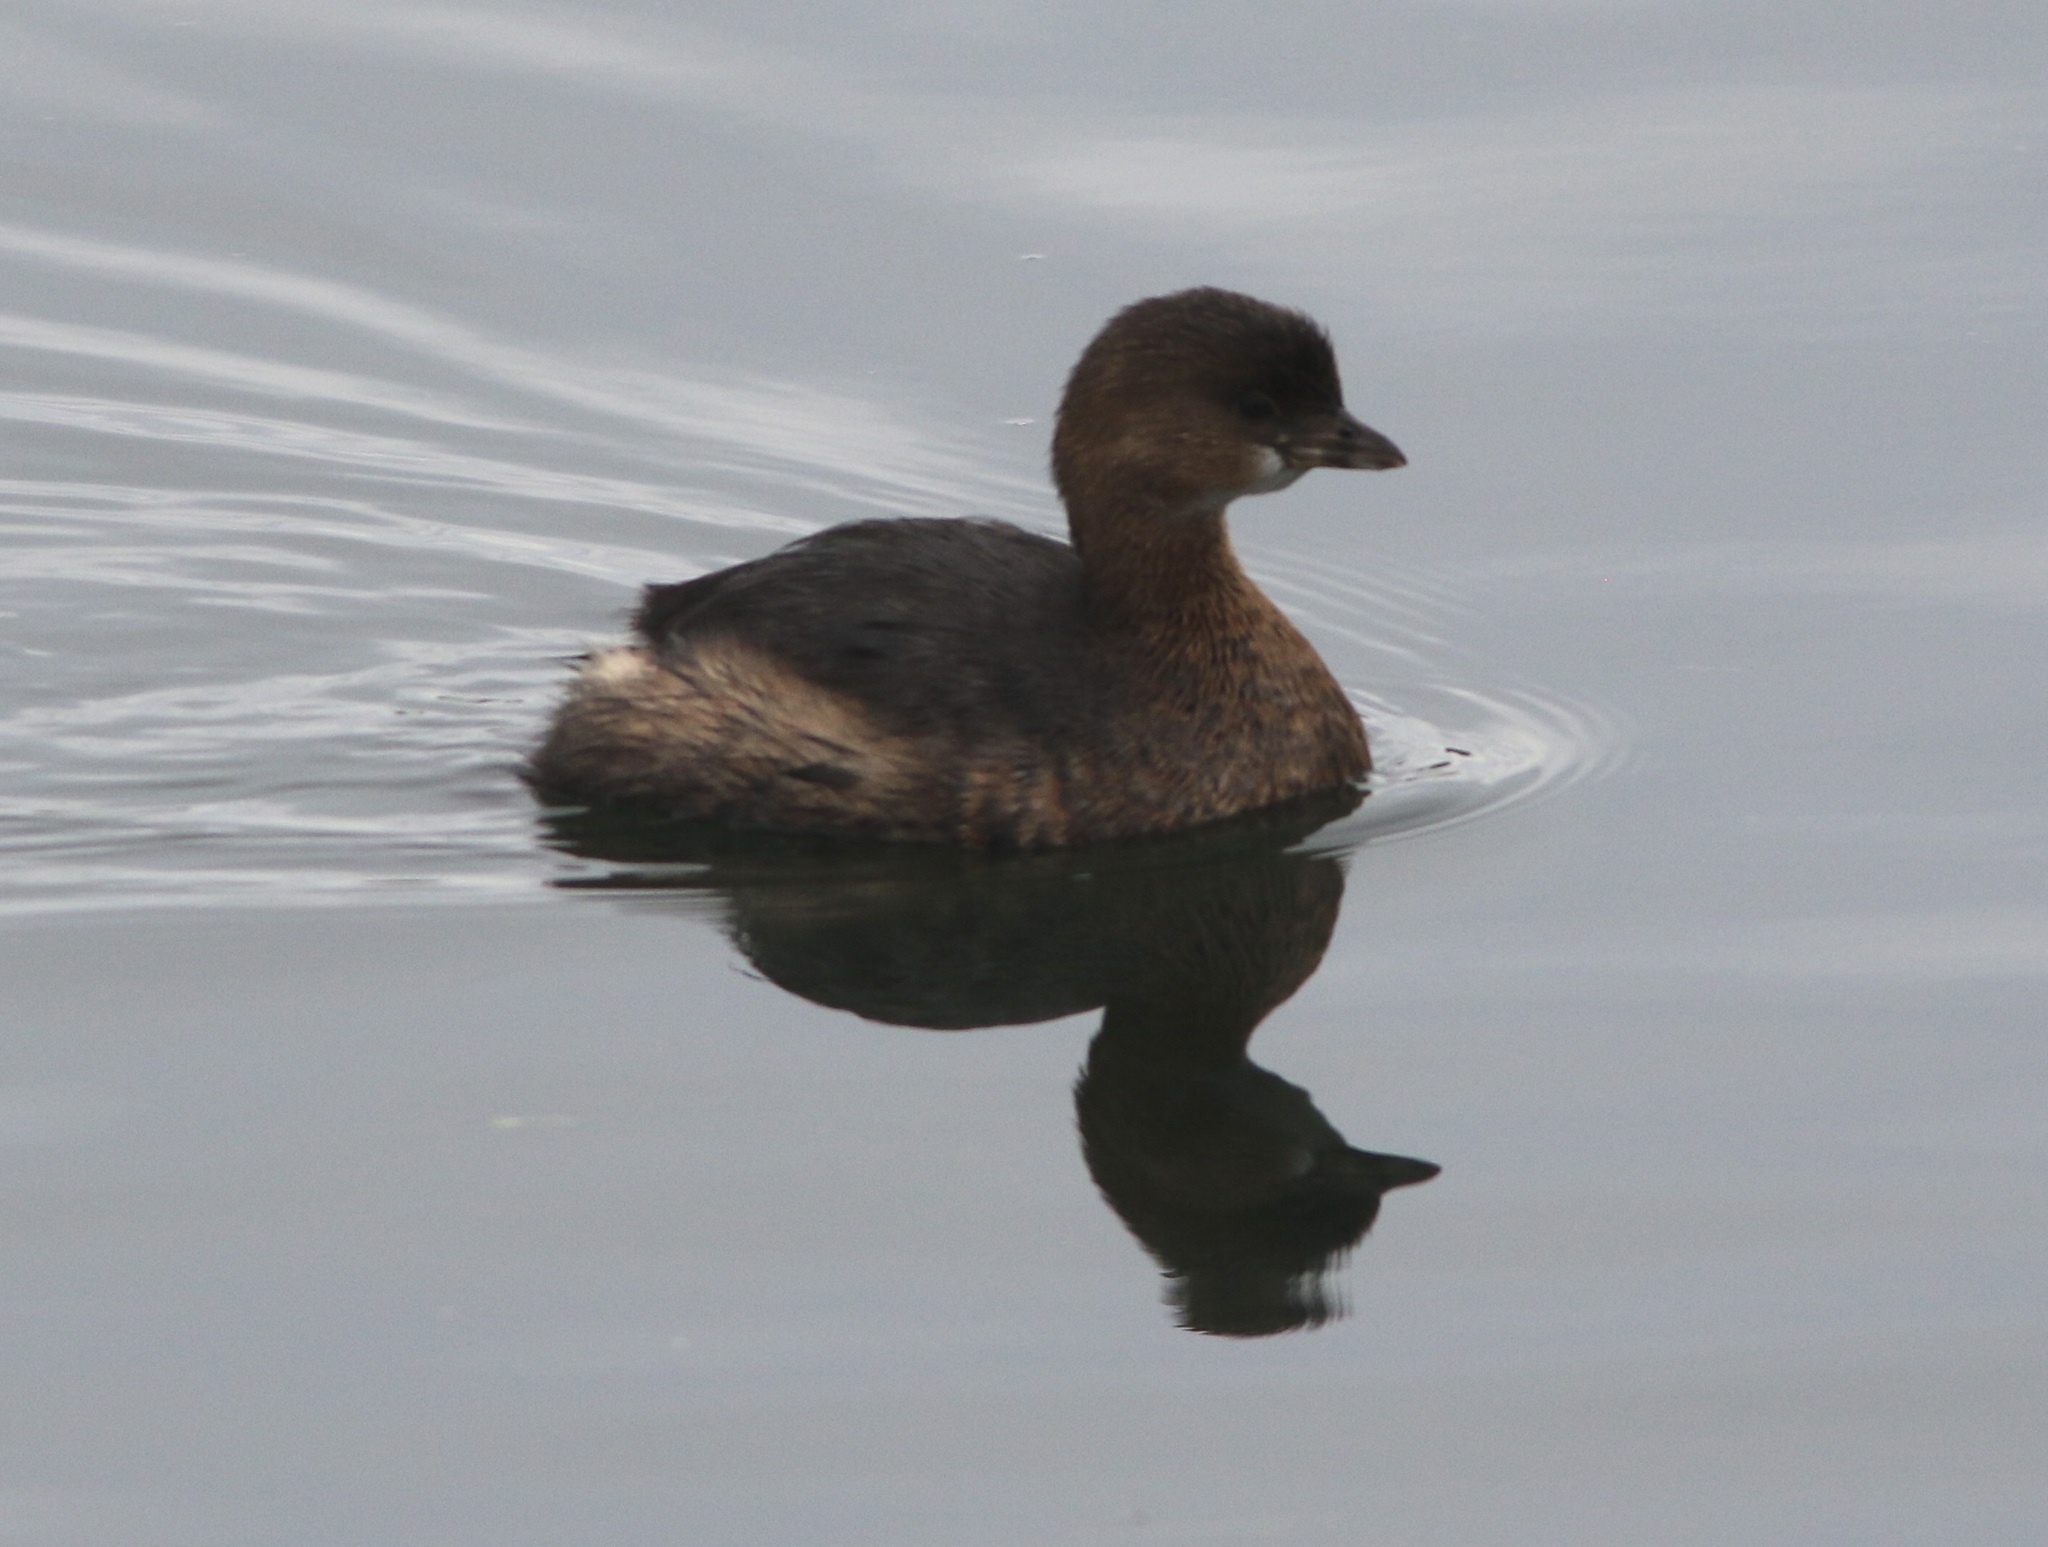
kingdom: Animalia
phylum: Chordata
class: Aves
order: Podicipediformes
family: Podicipedidae
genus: Podilymbus
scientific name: Podilymbus podiceps
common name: Pied-billed grebe
